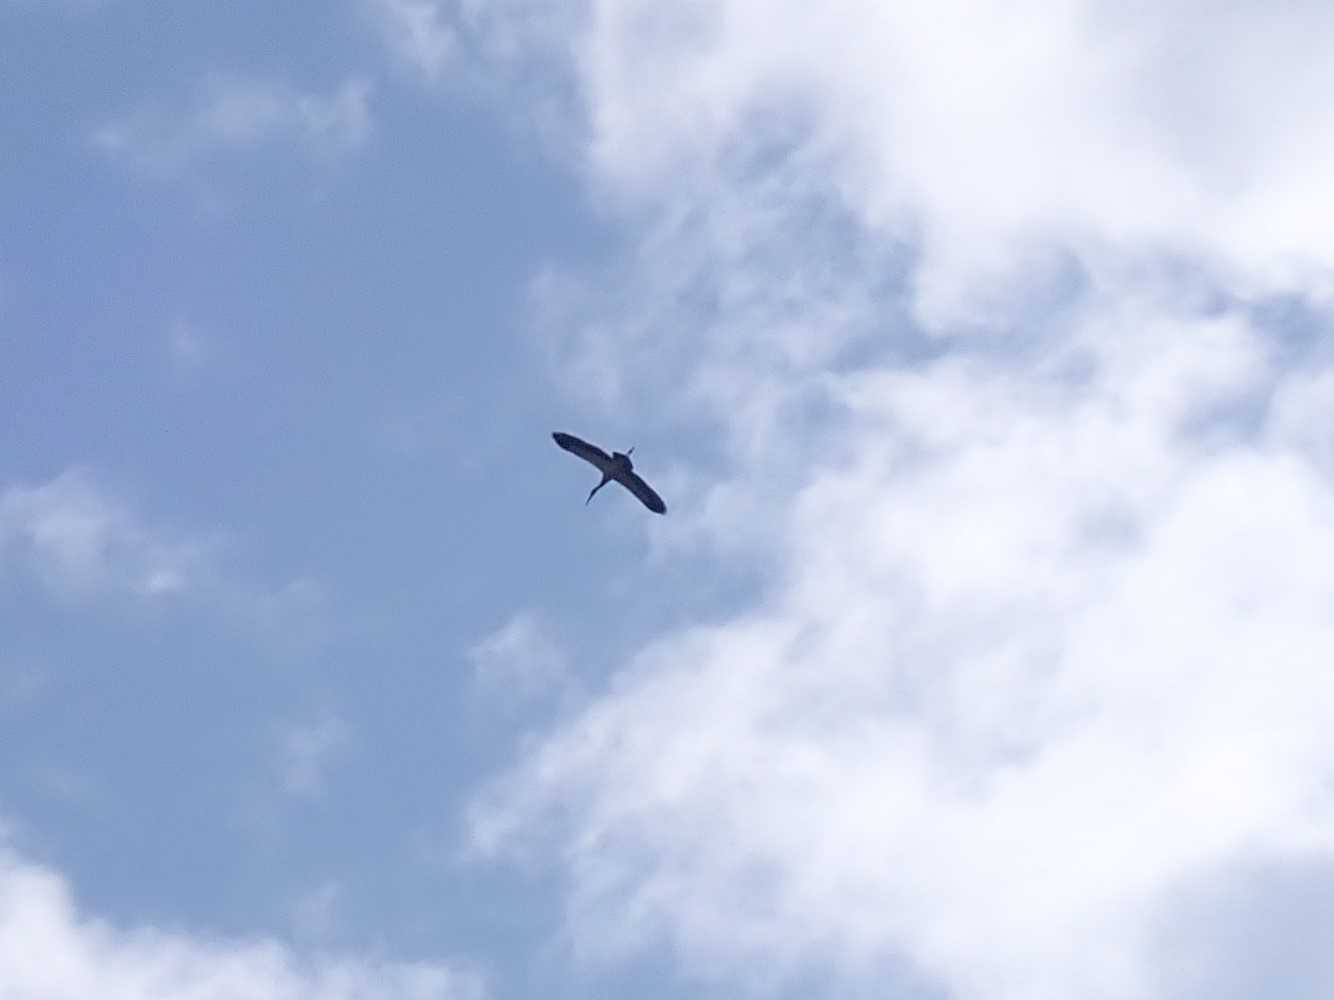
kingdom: Animalia
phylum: Chordata
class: Aves
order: Ciconiiformes
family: Ciconiidae
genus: Anastomus
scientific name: Anastomus oscitans
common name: Asian openbill
